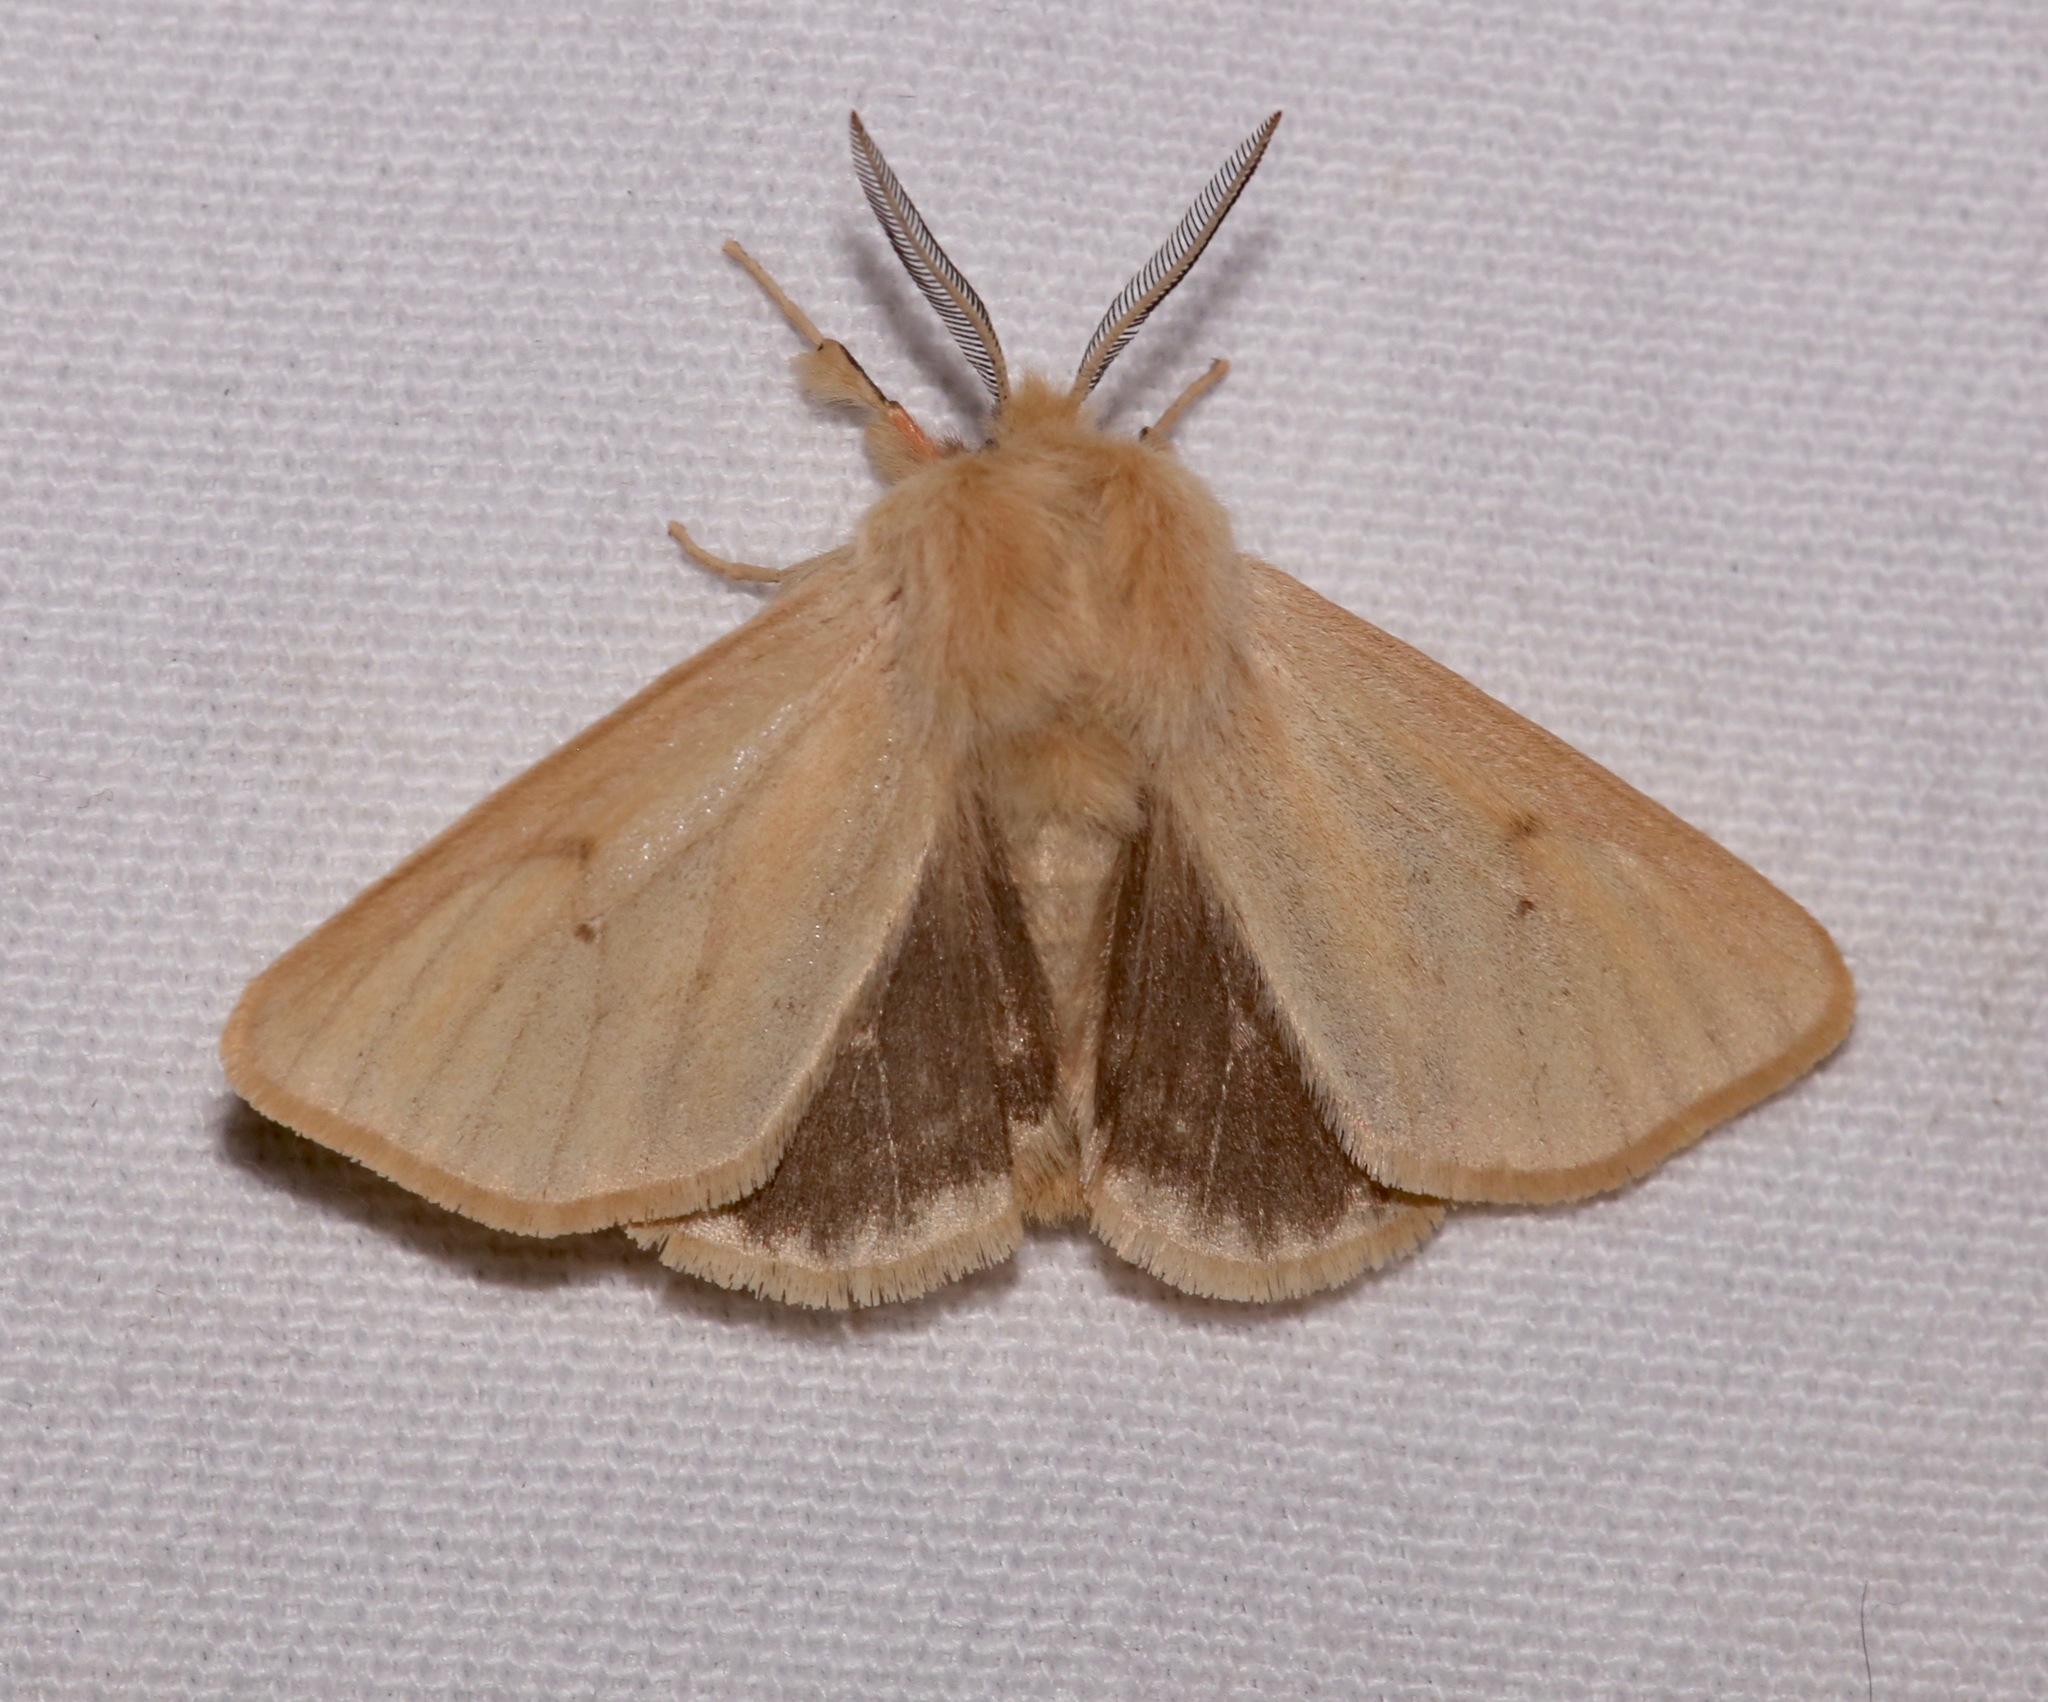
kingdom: Animalia
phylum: Arthropoda
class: Insecta
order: Lepidoptera
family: Erebidae
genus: Spilosoma
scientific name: Spilosoma vagans
